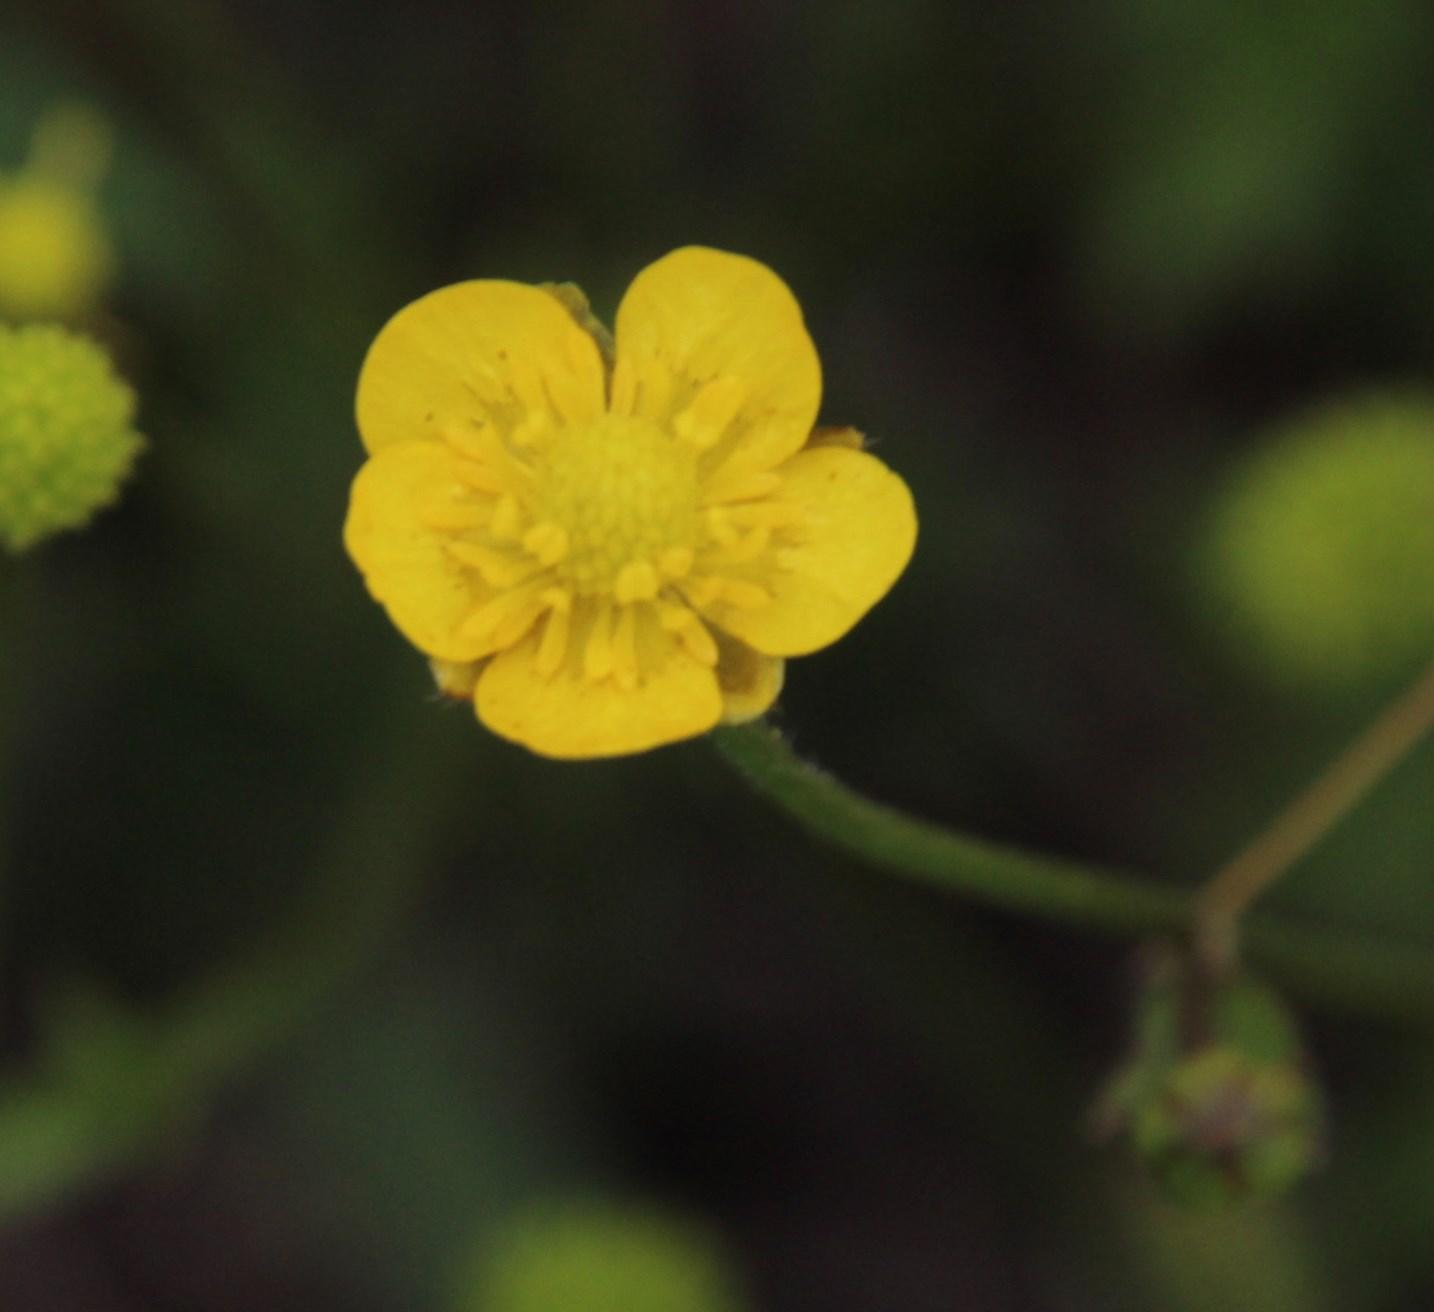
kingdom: Plantae
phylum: Tracheophyta
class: Magnoliopsida
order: Ranunculales
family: Ranunculaceae
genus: Ranunculus
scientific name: Ranunculus multifidus
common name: Wild buttercup
